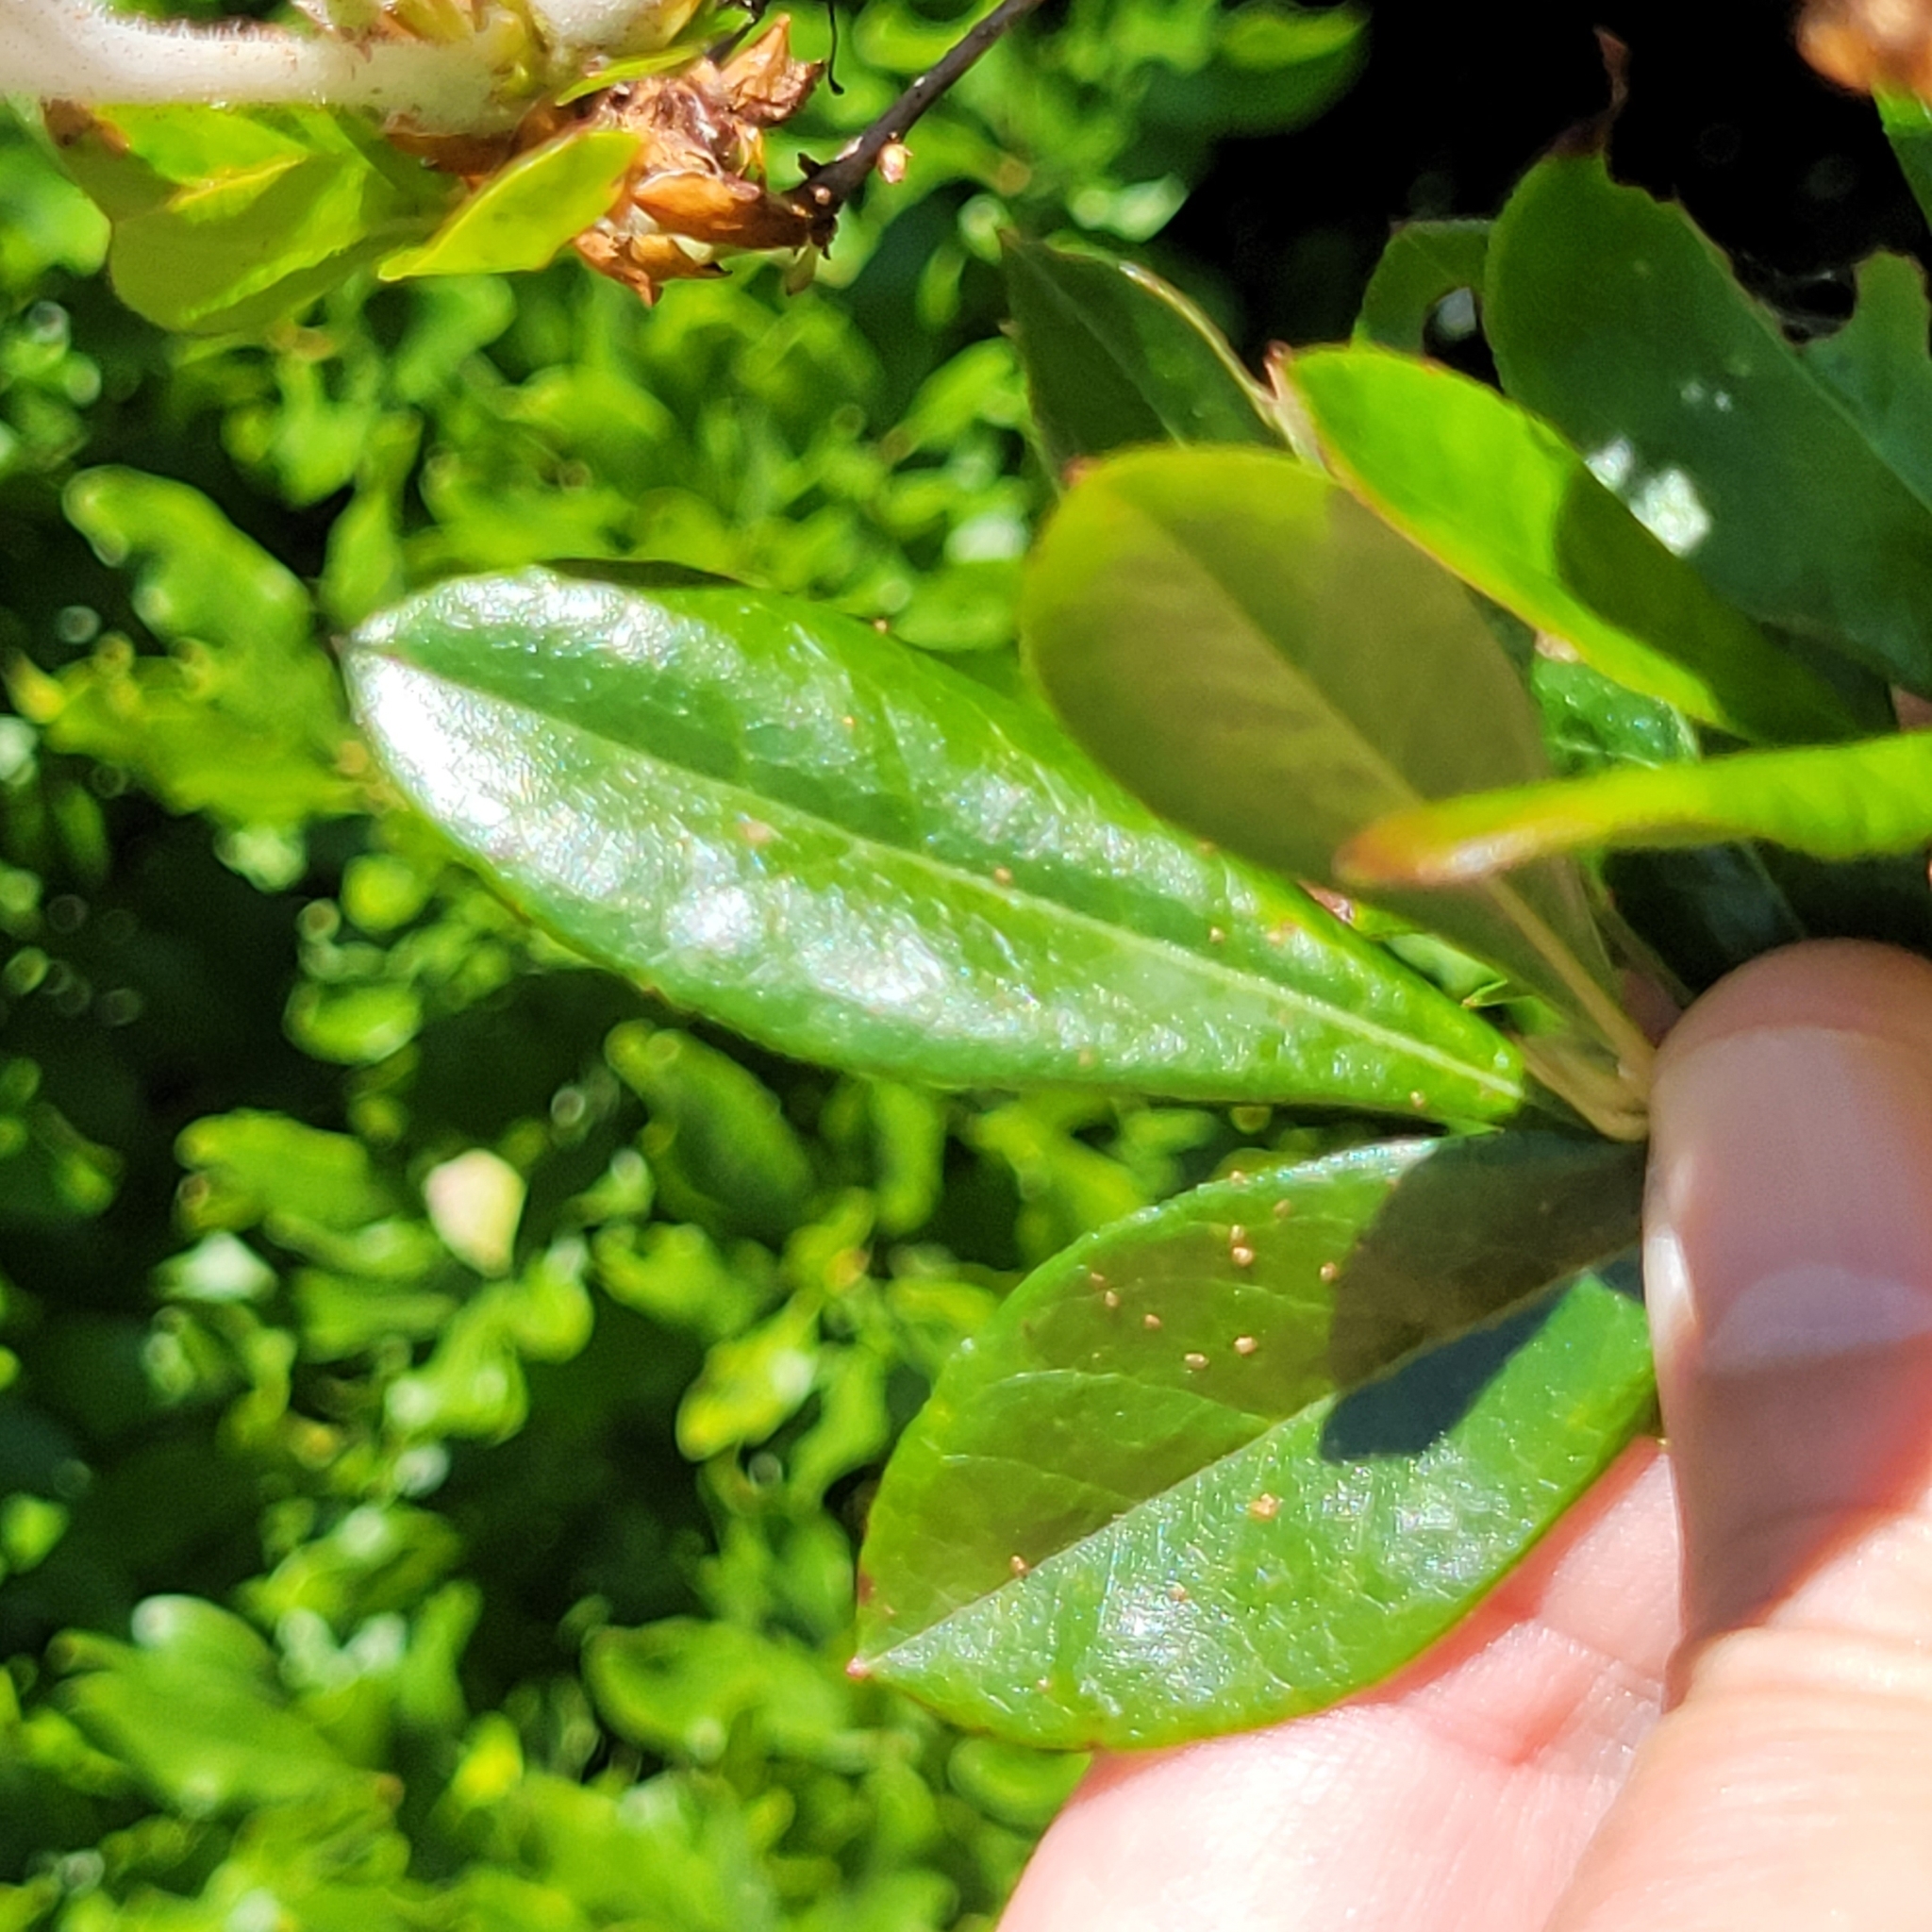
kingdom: Plantae
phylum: Tracheophyta
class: Magnoliopsida
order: Ericales
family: Ericaceae
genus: Rhododendron
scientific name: Rhododendron viscosum
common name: Clammy azalea
